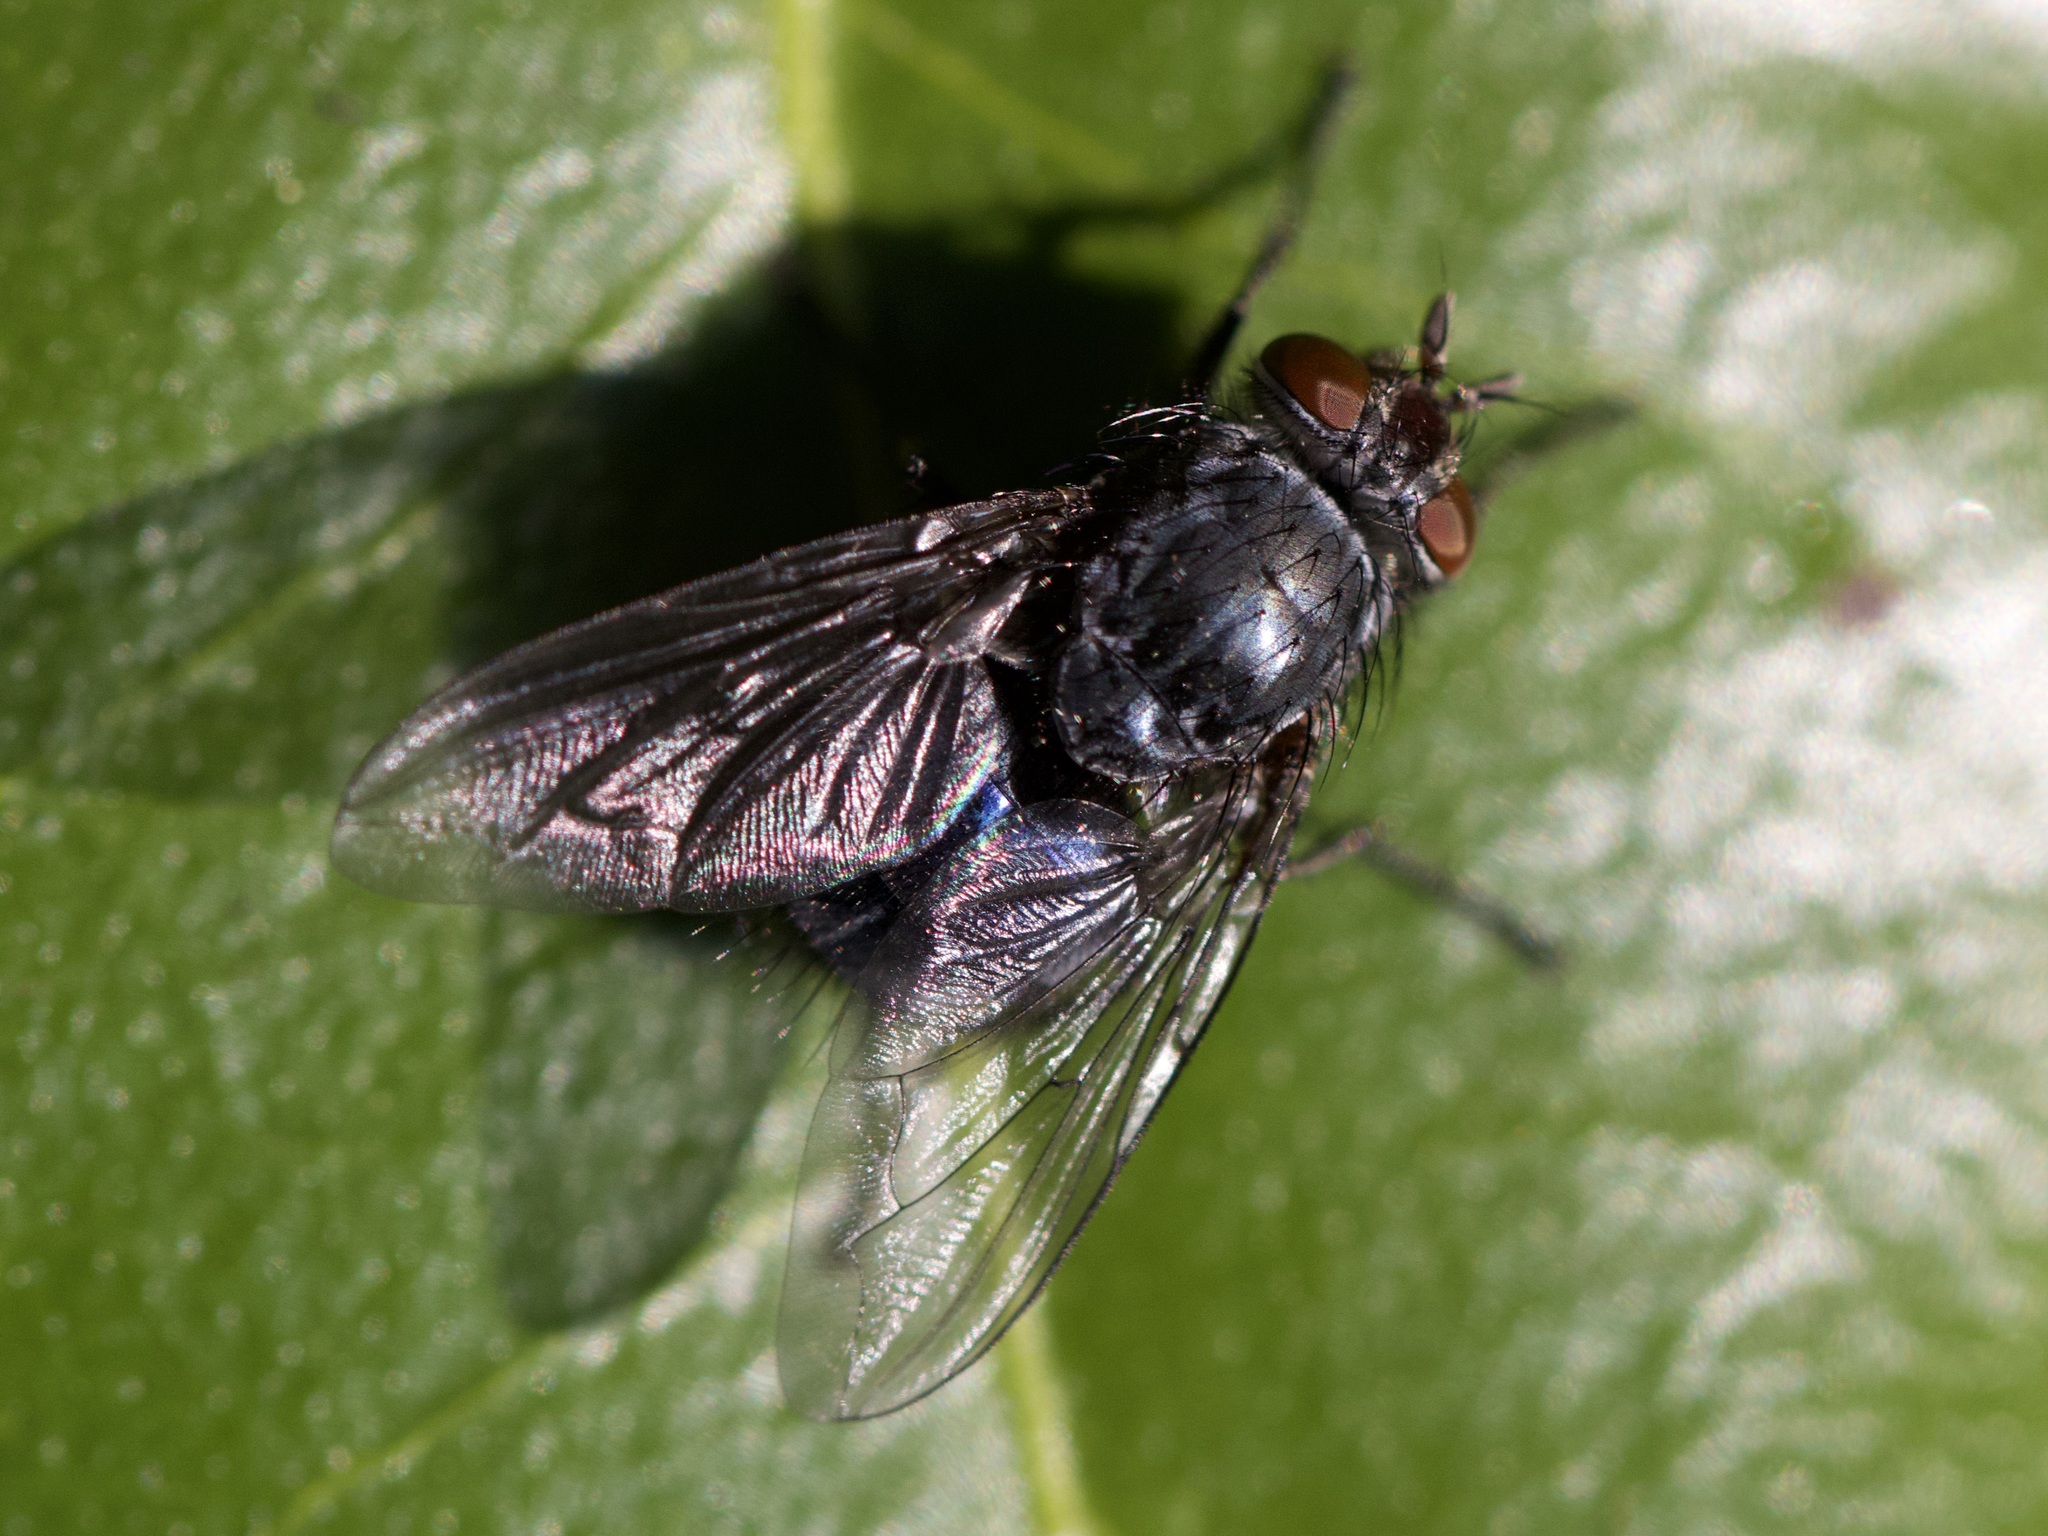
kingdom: Animalia
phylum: Arthropoda
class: Insecta
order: Diptera
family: Calliphoridae
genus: Calliphora
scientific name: Calliphora vicina
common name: Common blow flie
